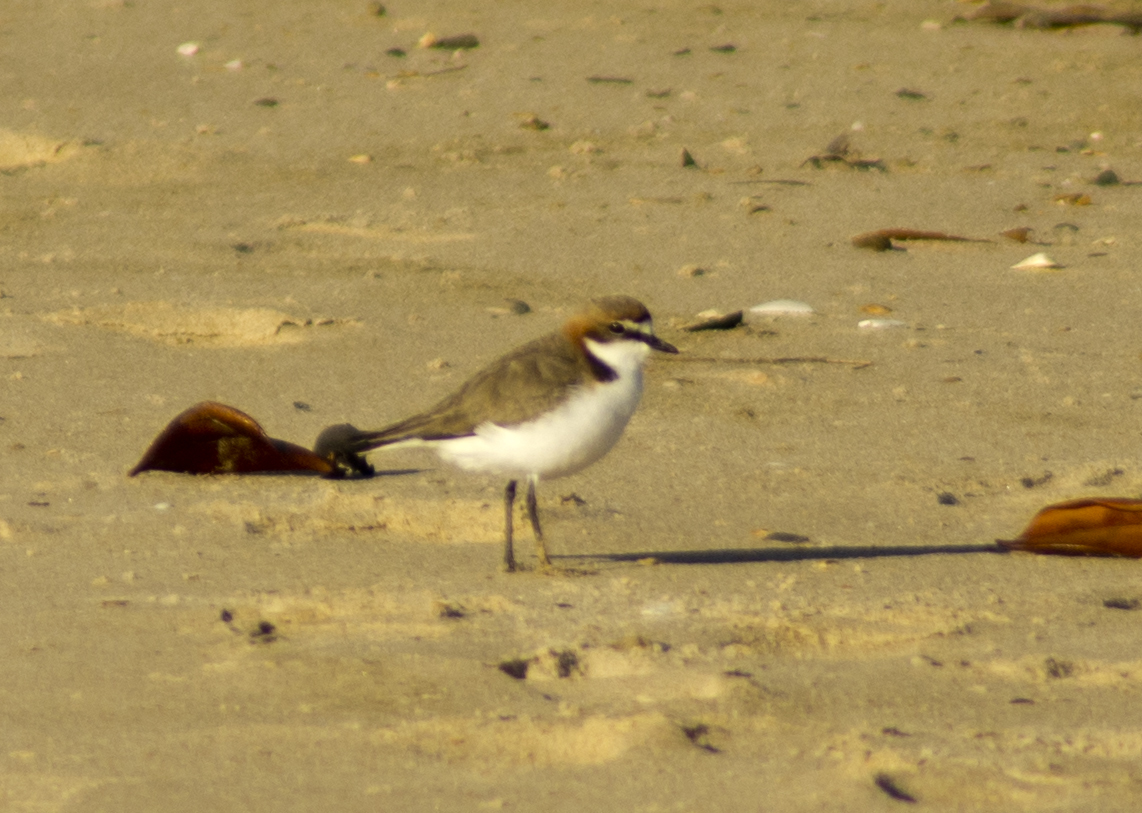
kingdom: Animalia
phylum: Chordata
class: Aves
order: Charadriiformes
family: Charadriidae
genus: Anarhynchus
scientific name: Anarhynchus
